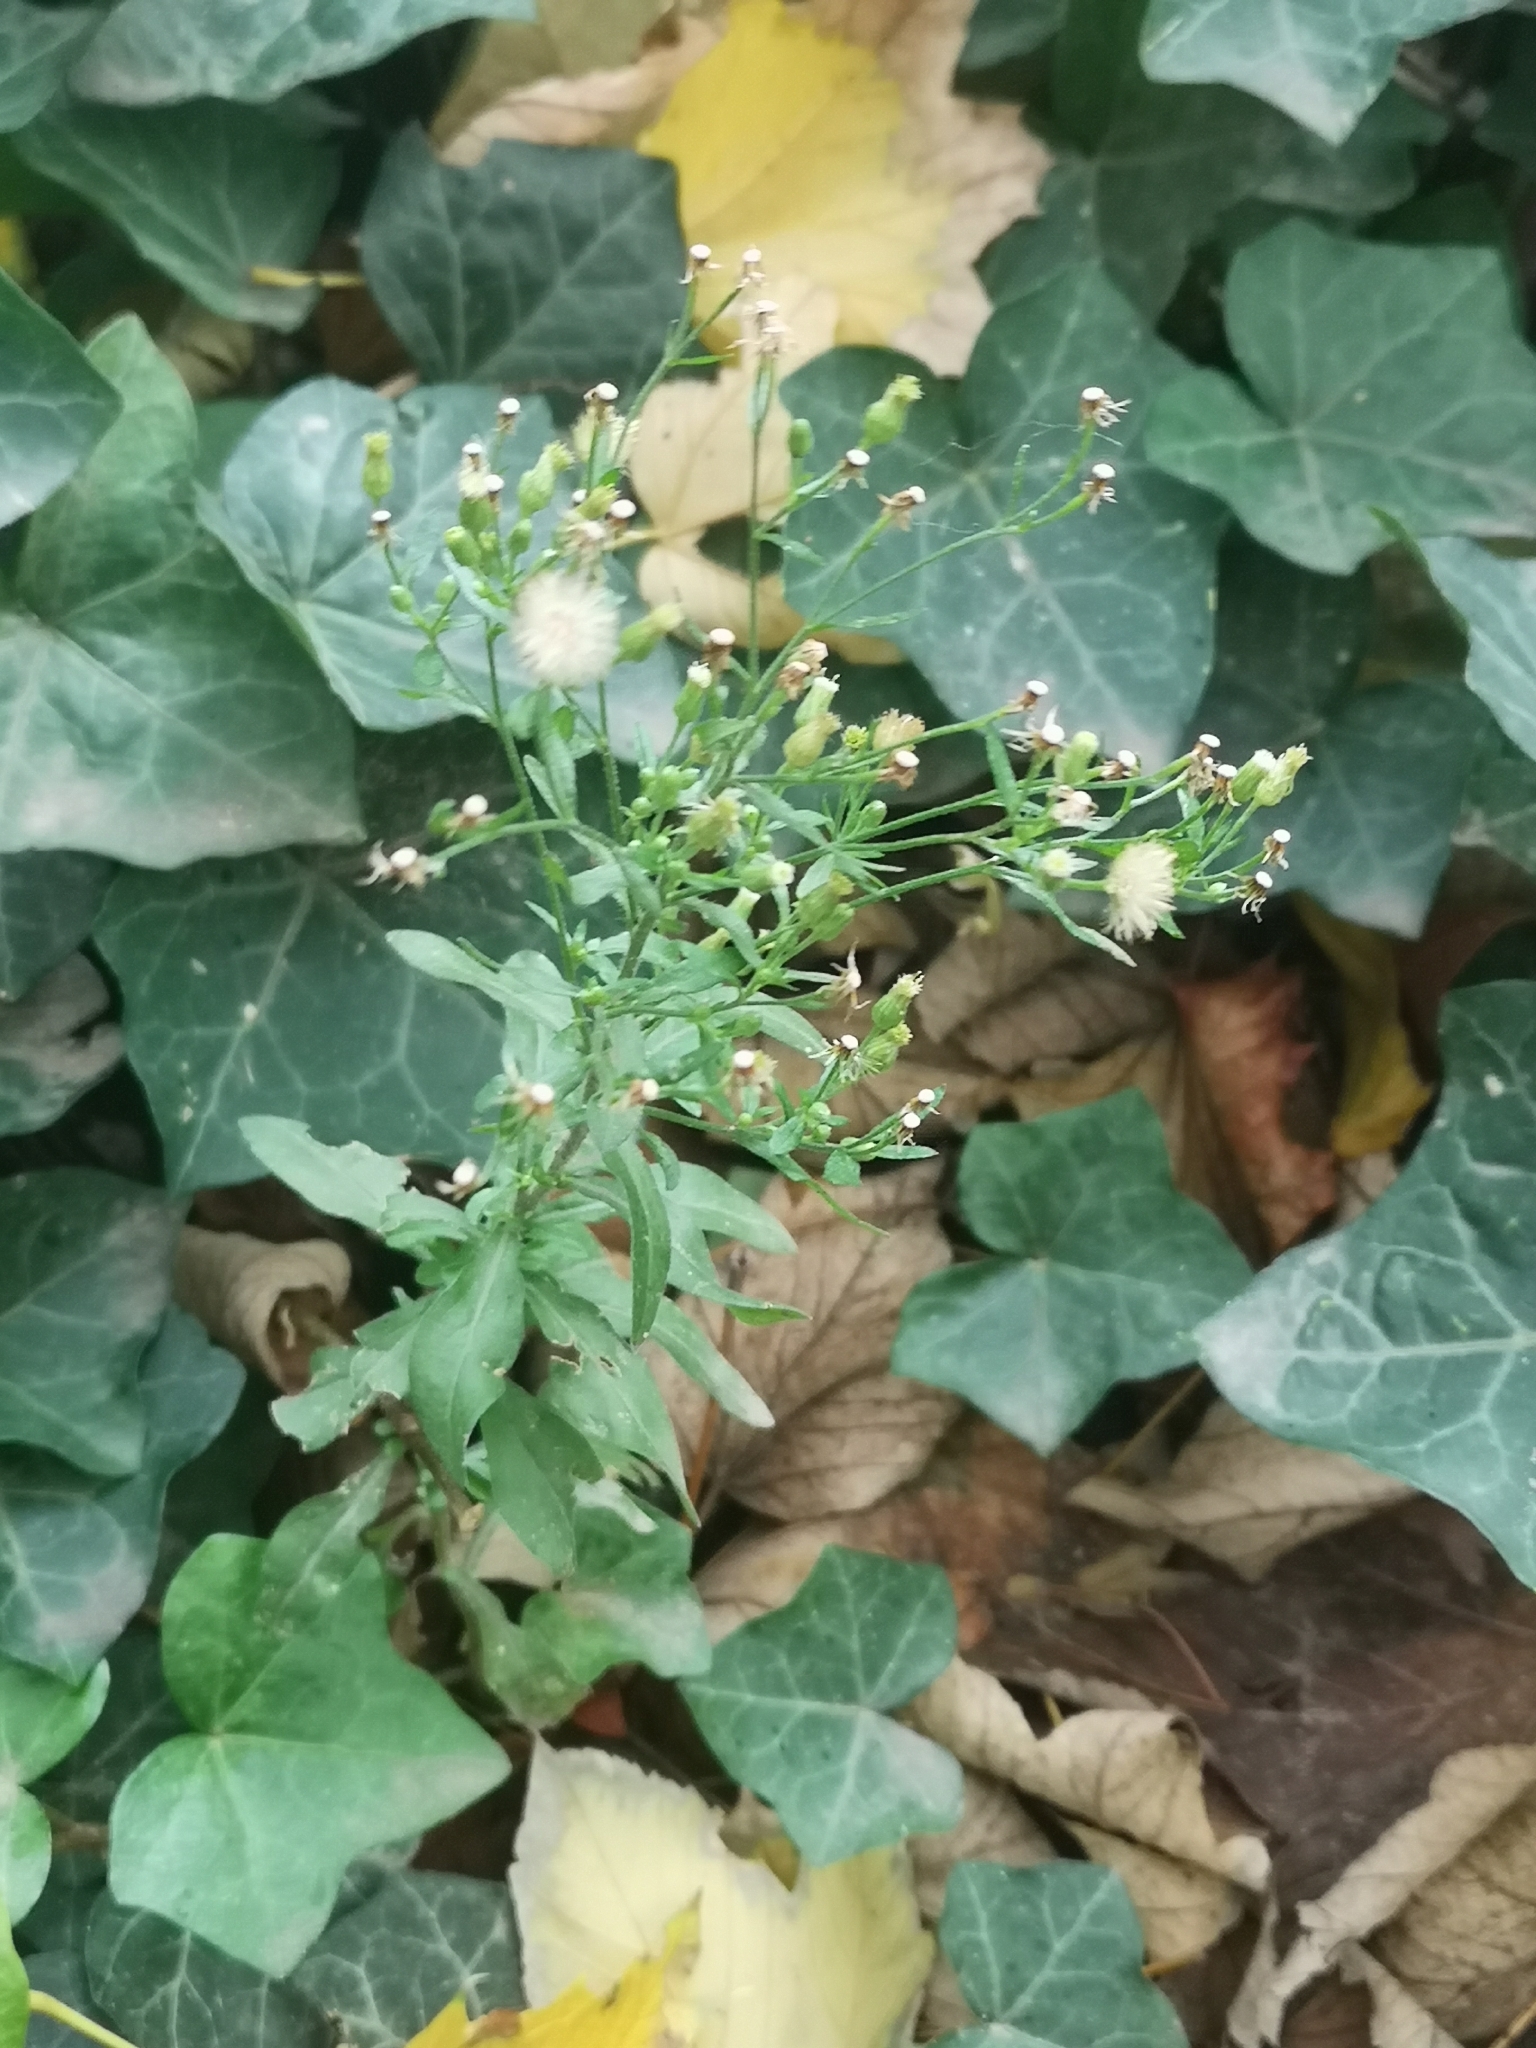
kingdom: Plantae
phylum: Tracheophyta
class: Magnoliopsida
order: Asterales
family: Asteraceae
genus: Erigeron
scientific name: Erigeron canadensis
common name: Canadian fleabane
